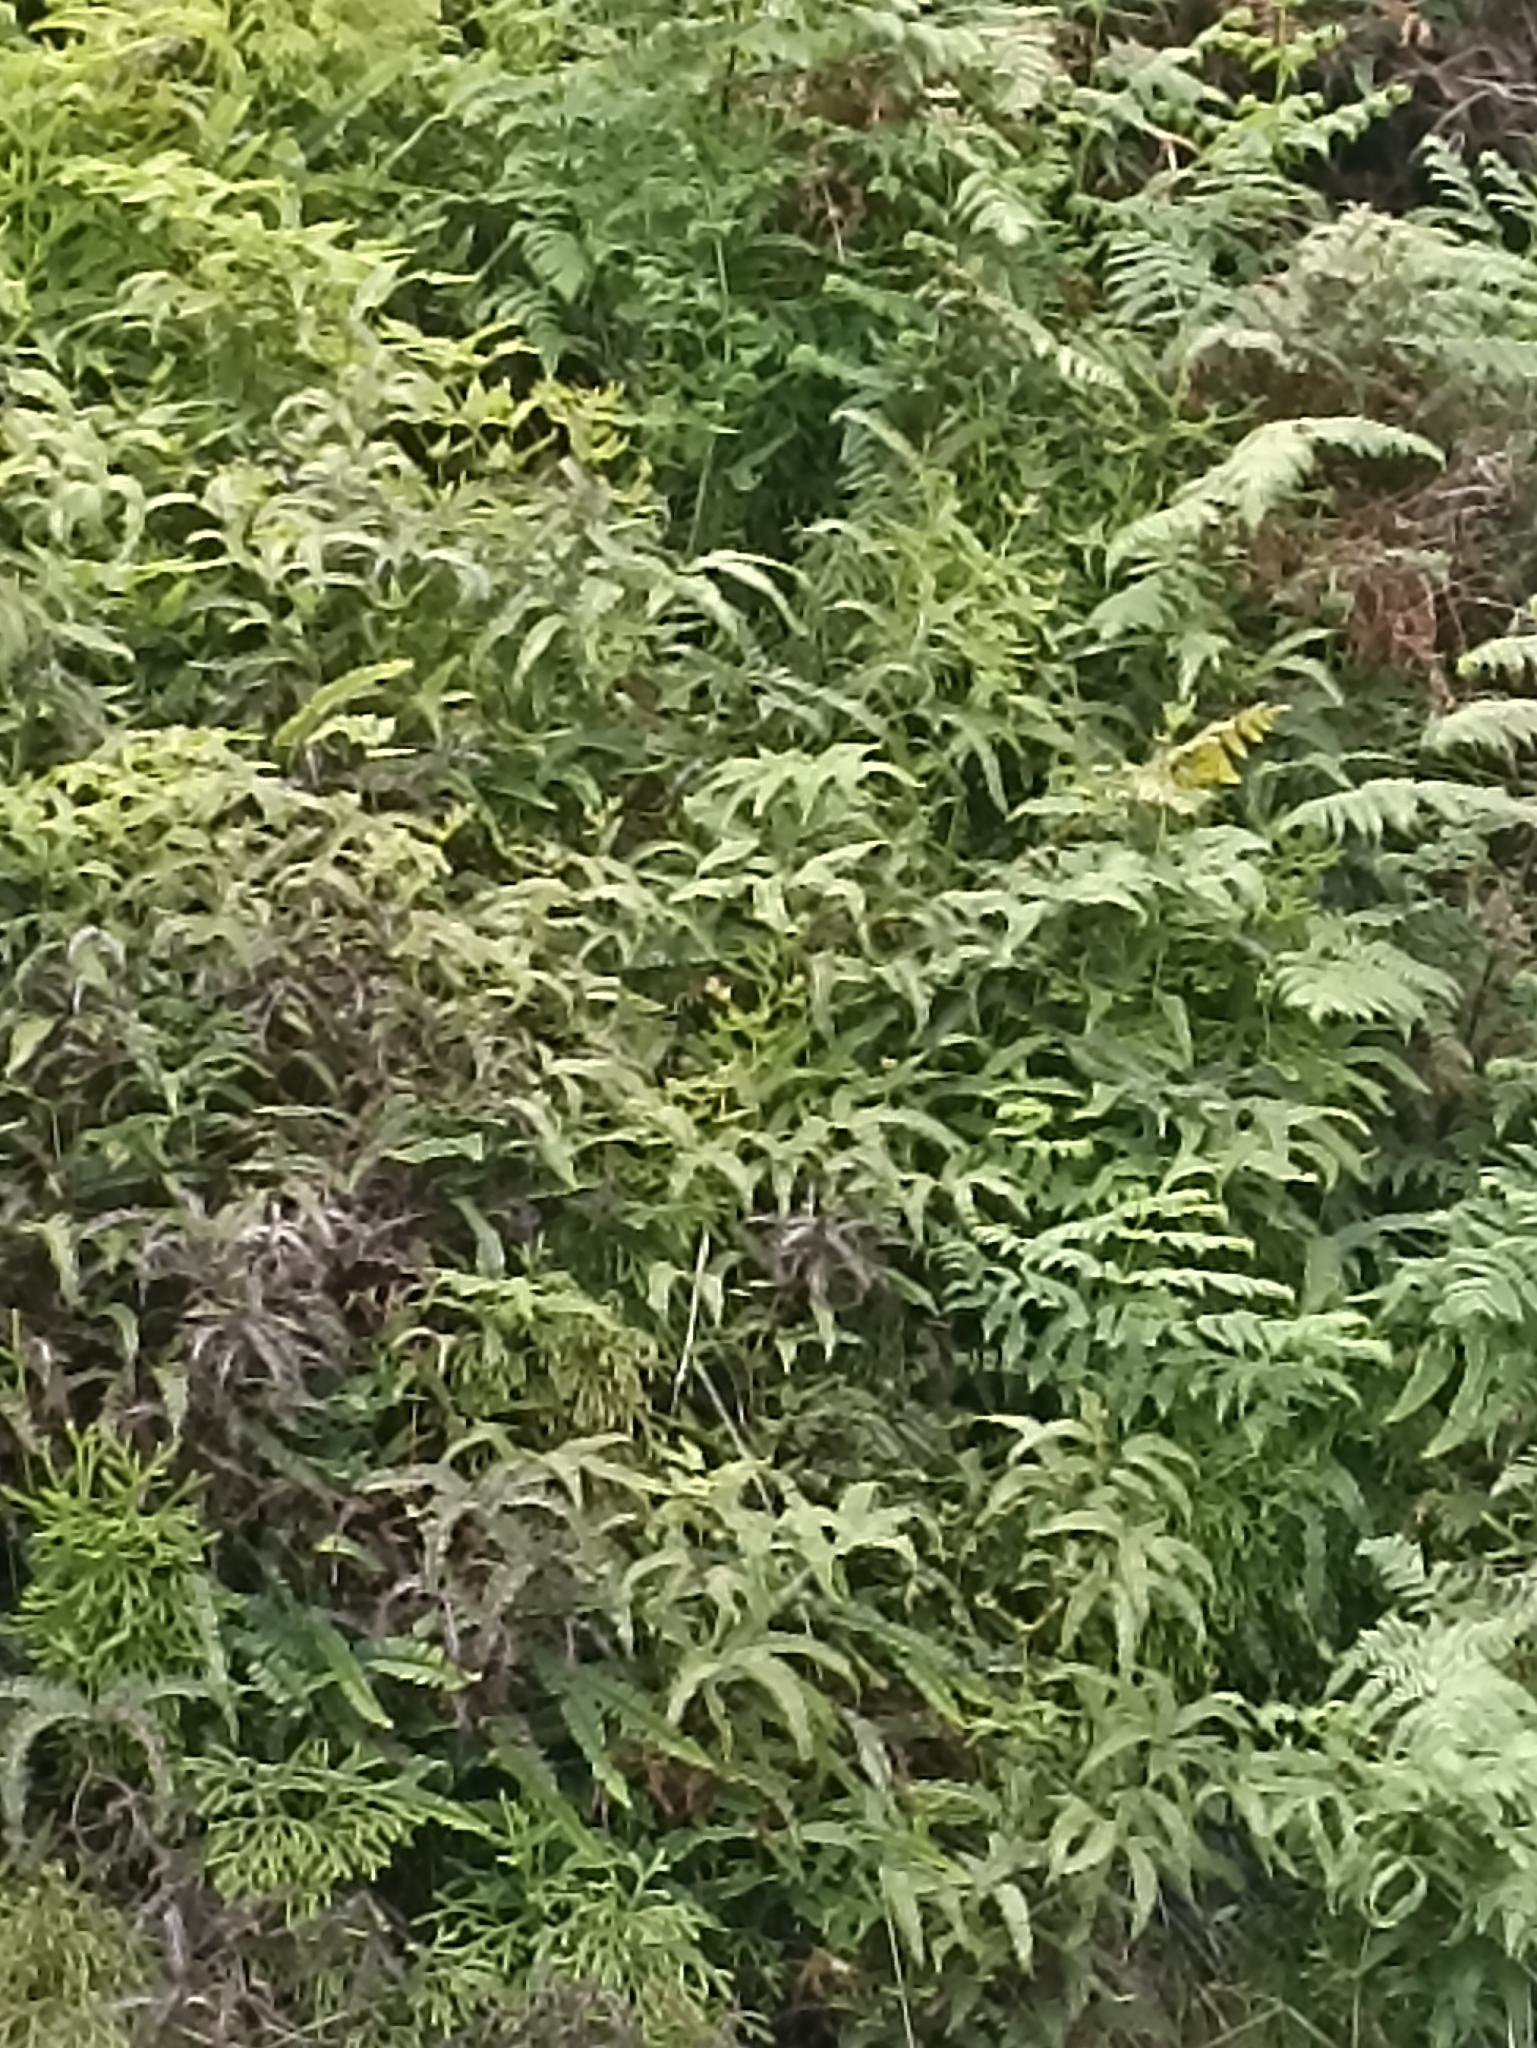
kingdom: Plantae
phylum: Tracheophyta
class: Polypodiopsida
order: Gleicheniales
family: Gleicheniaceae
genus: Dicranopteris
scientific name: Dicranopteris linearis
